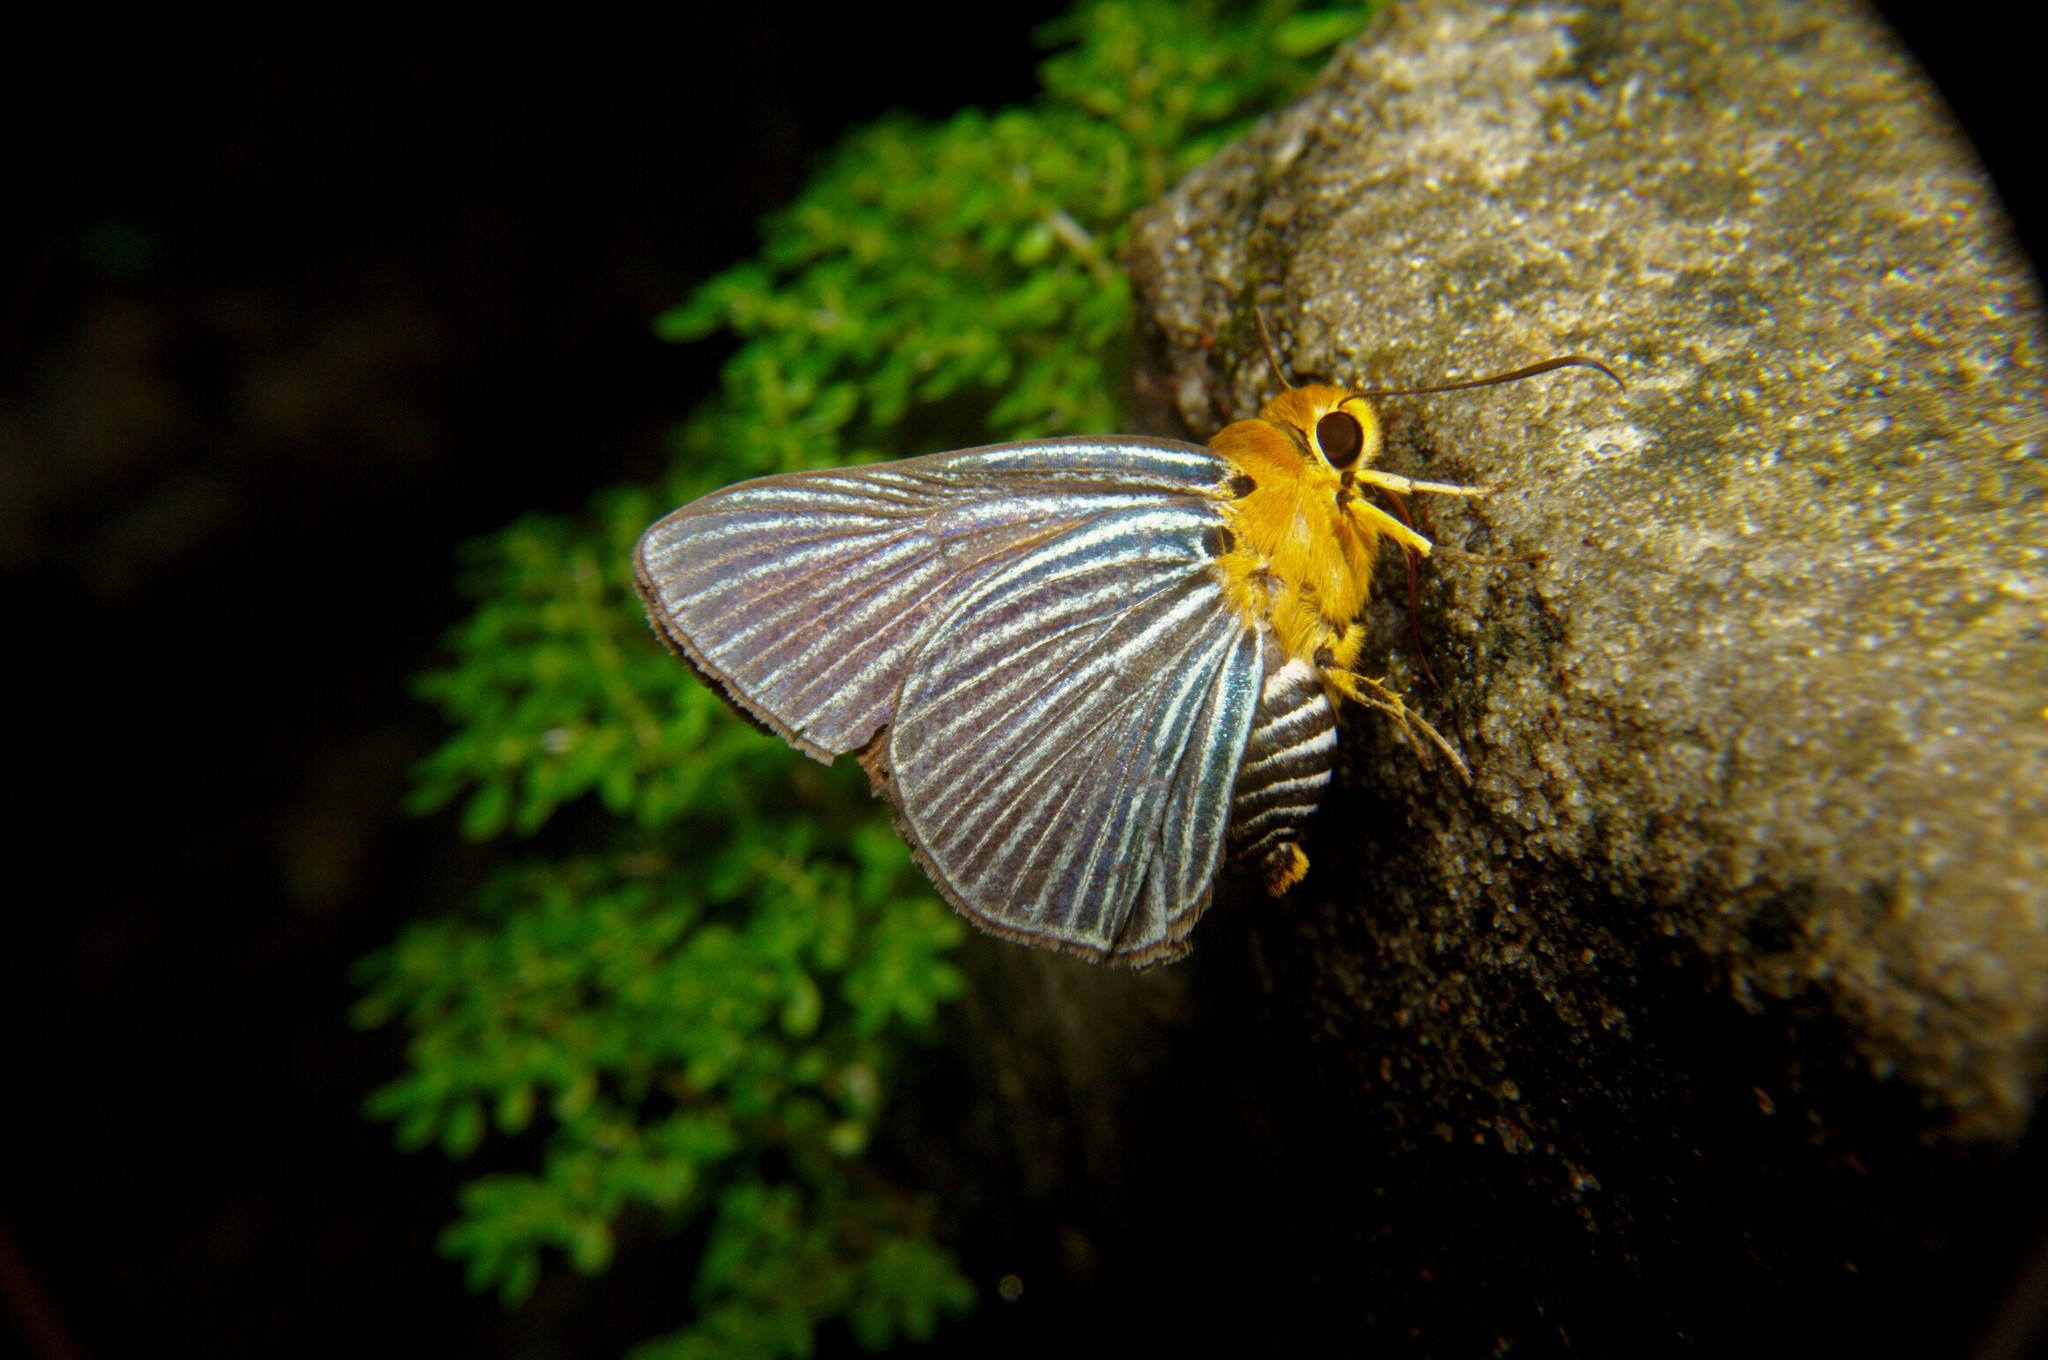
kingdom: Animalia
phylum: Arthropoda
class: Insecta
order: Lepidoptera
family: Hesperiidae
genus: Bibasis
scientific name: Bibasis amara
